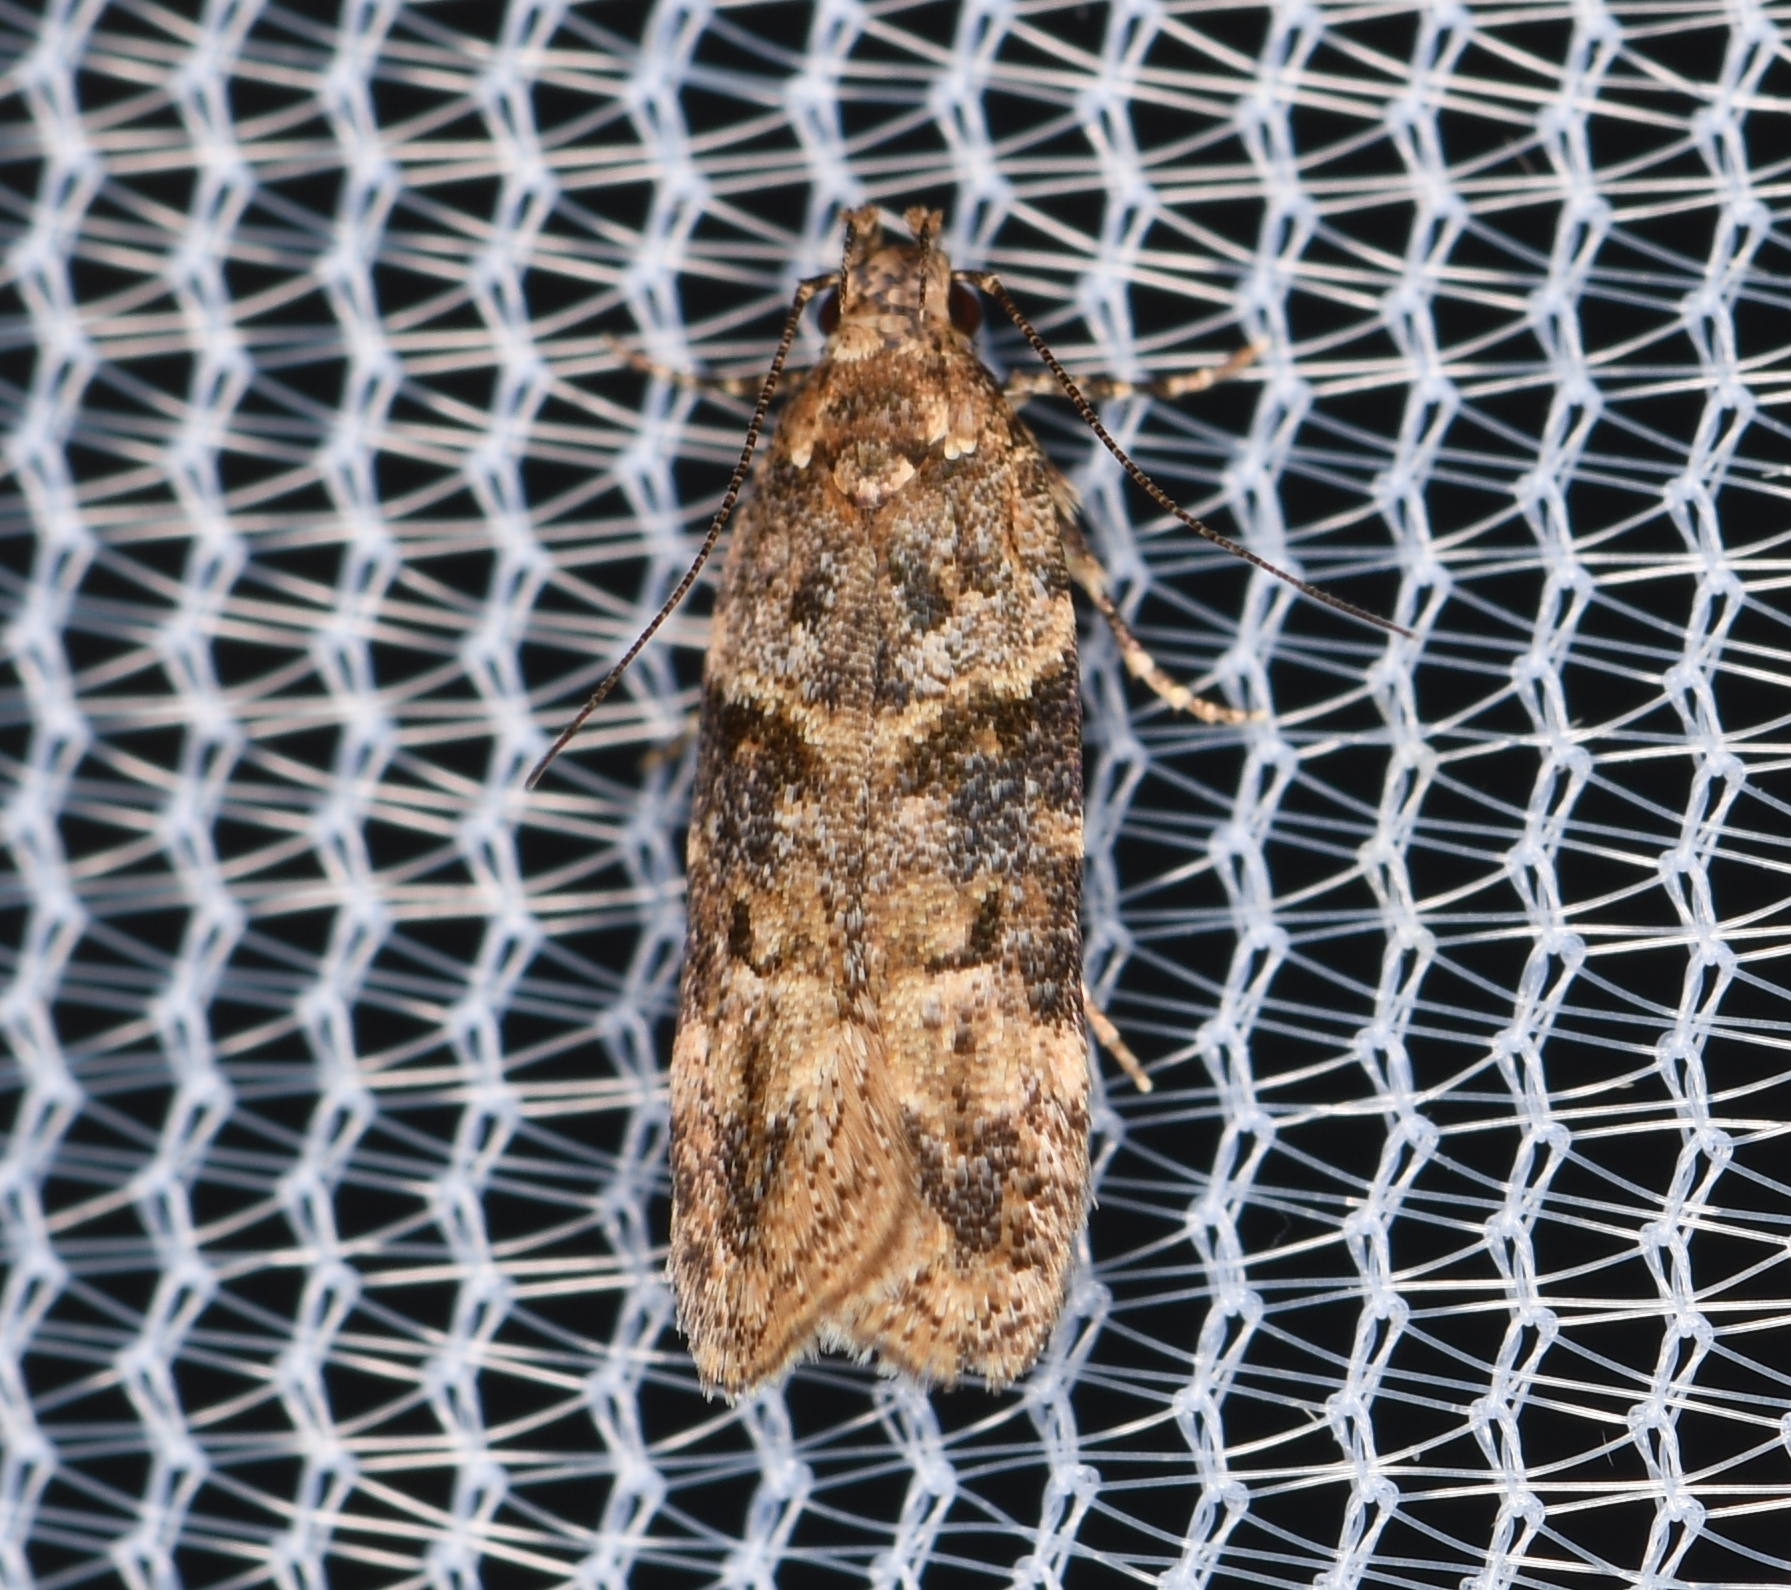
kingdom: Animalia
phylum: Arthropoda
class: Insecta
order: Lepidoptera
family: Gelechiidae
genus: Friseria
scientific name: Friseria nona
